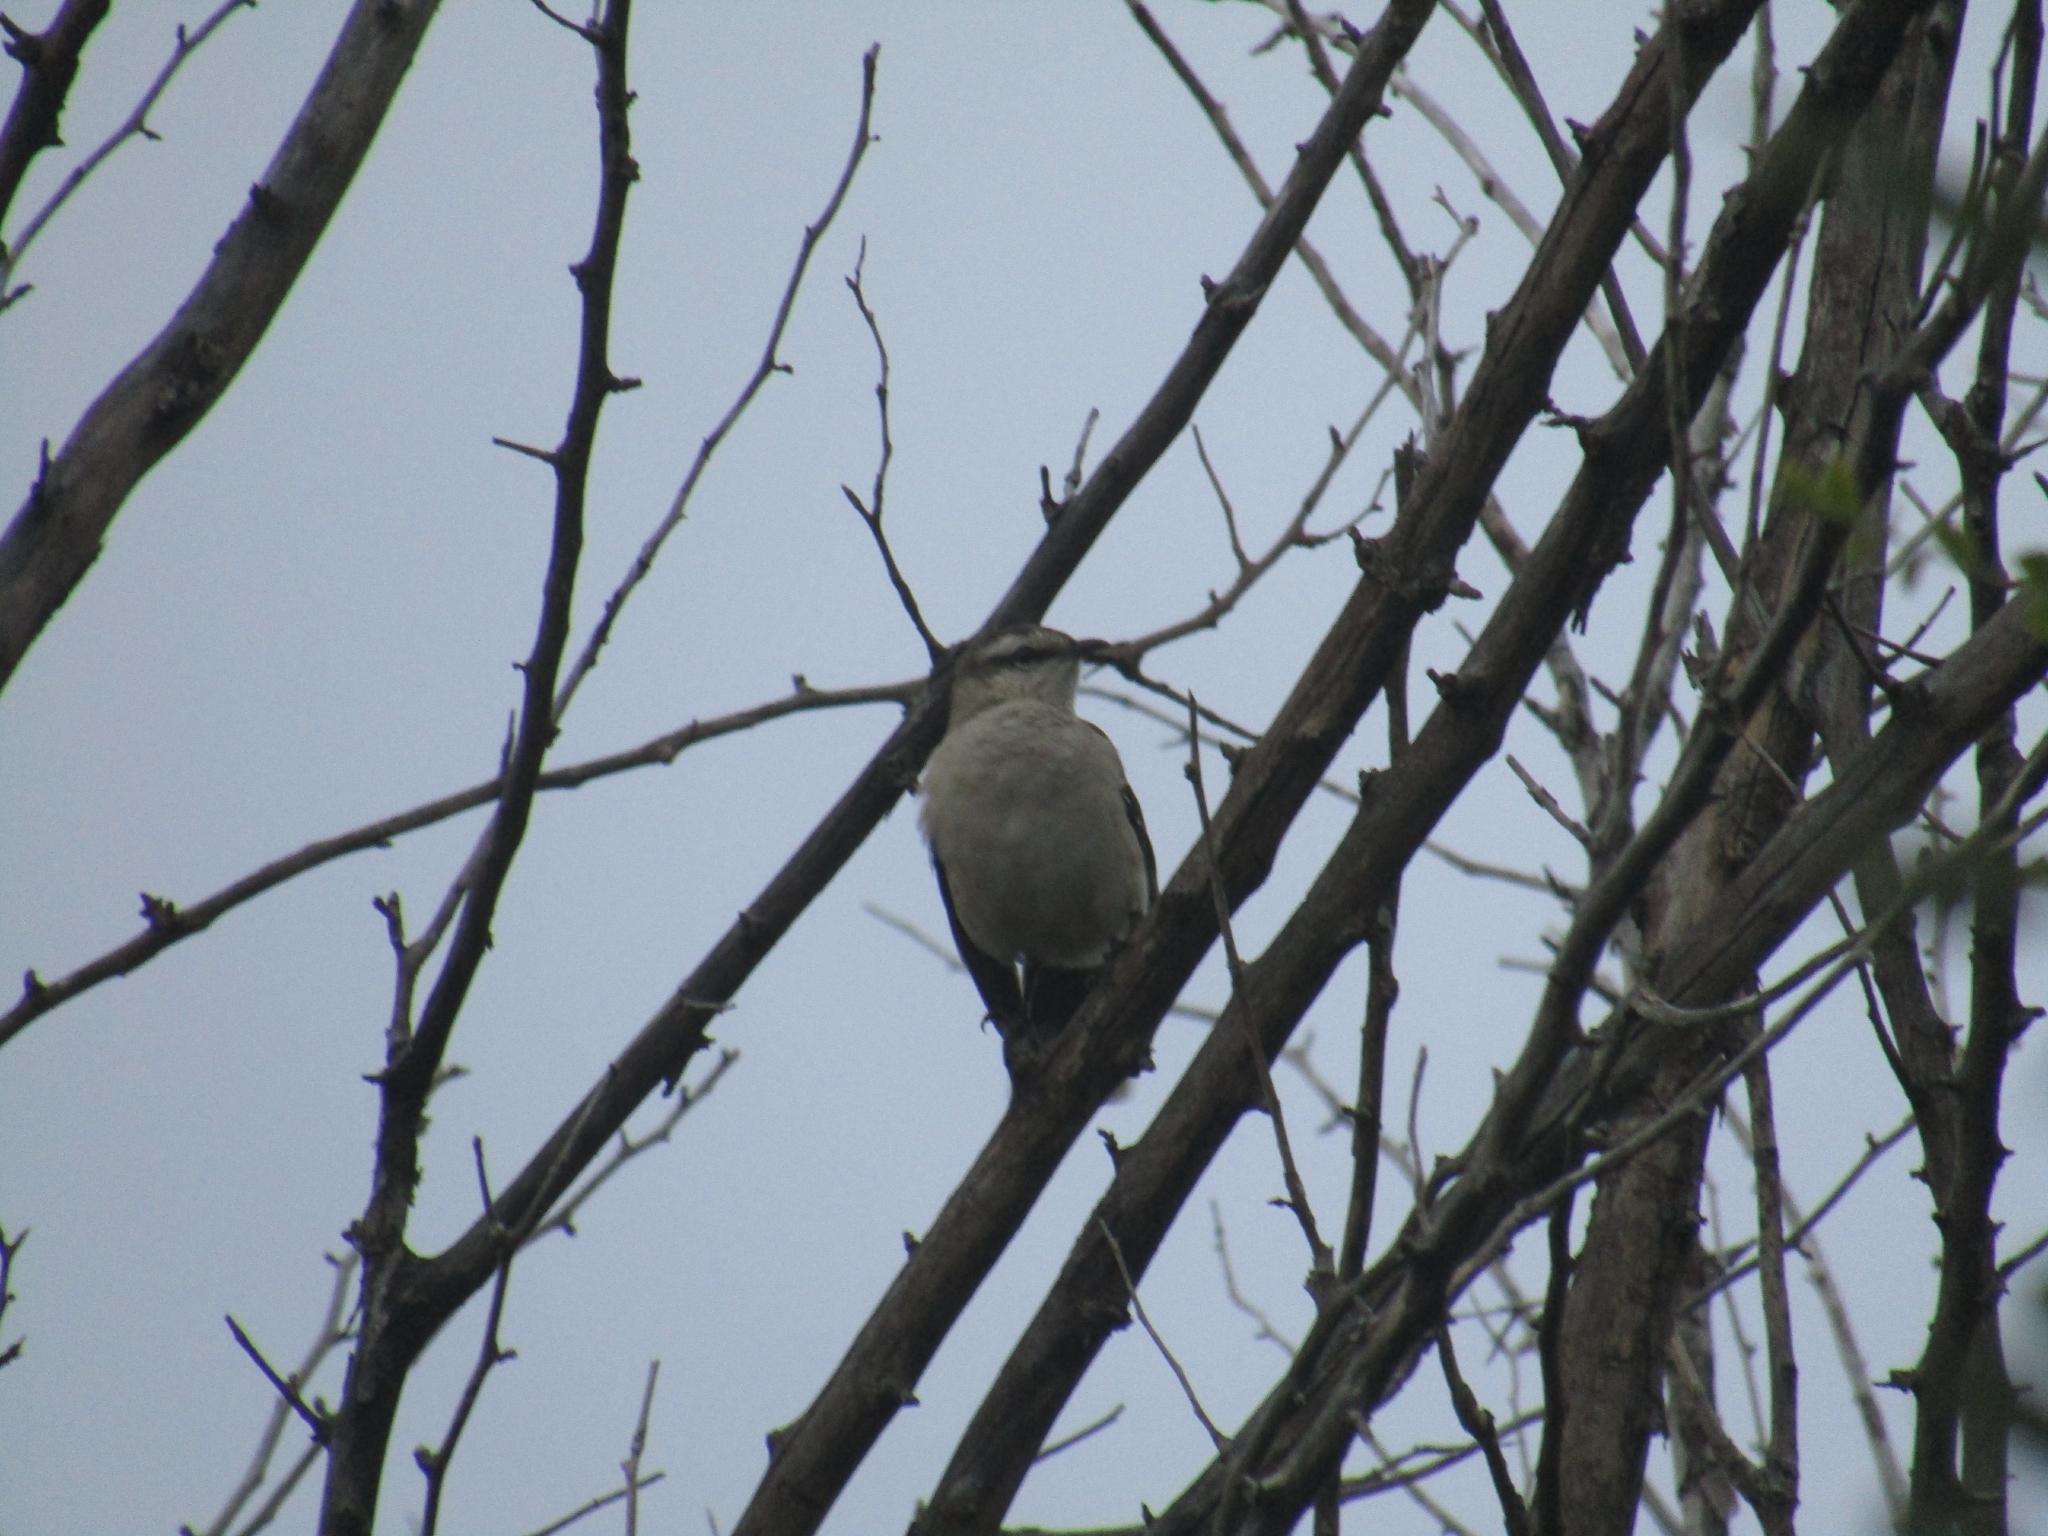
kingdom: Animalia
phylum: Chordata
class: Aves
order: Passeriformes
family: Mimidae
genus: Mimus
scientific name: Mimus saturninus
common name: Chalk-browed mockingbird
